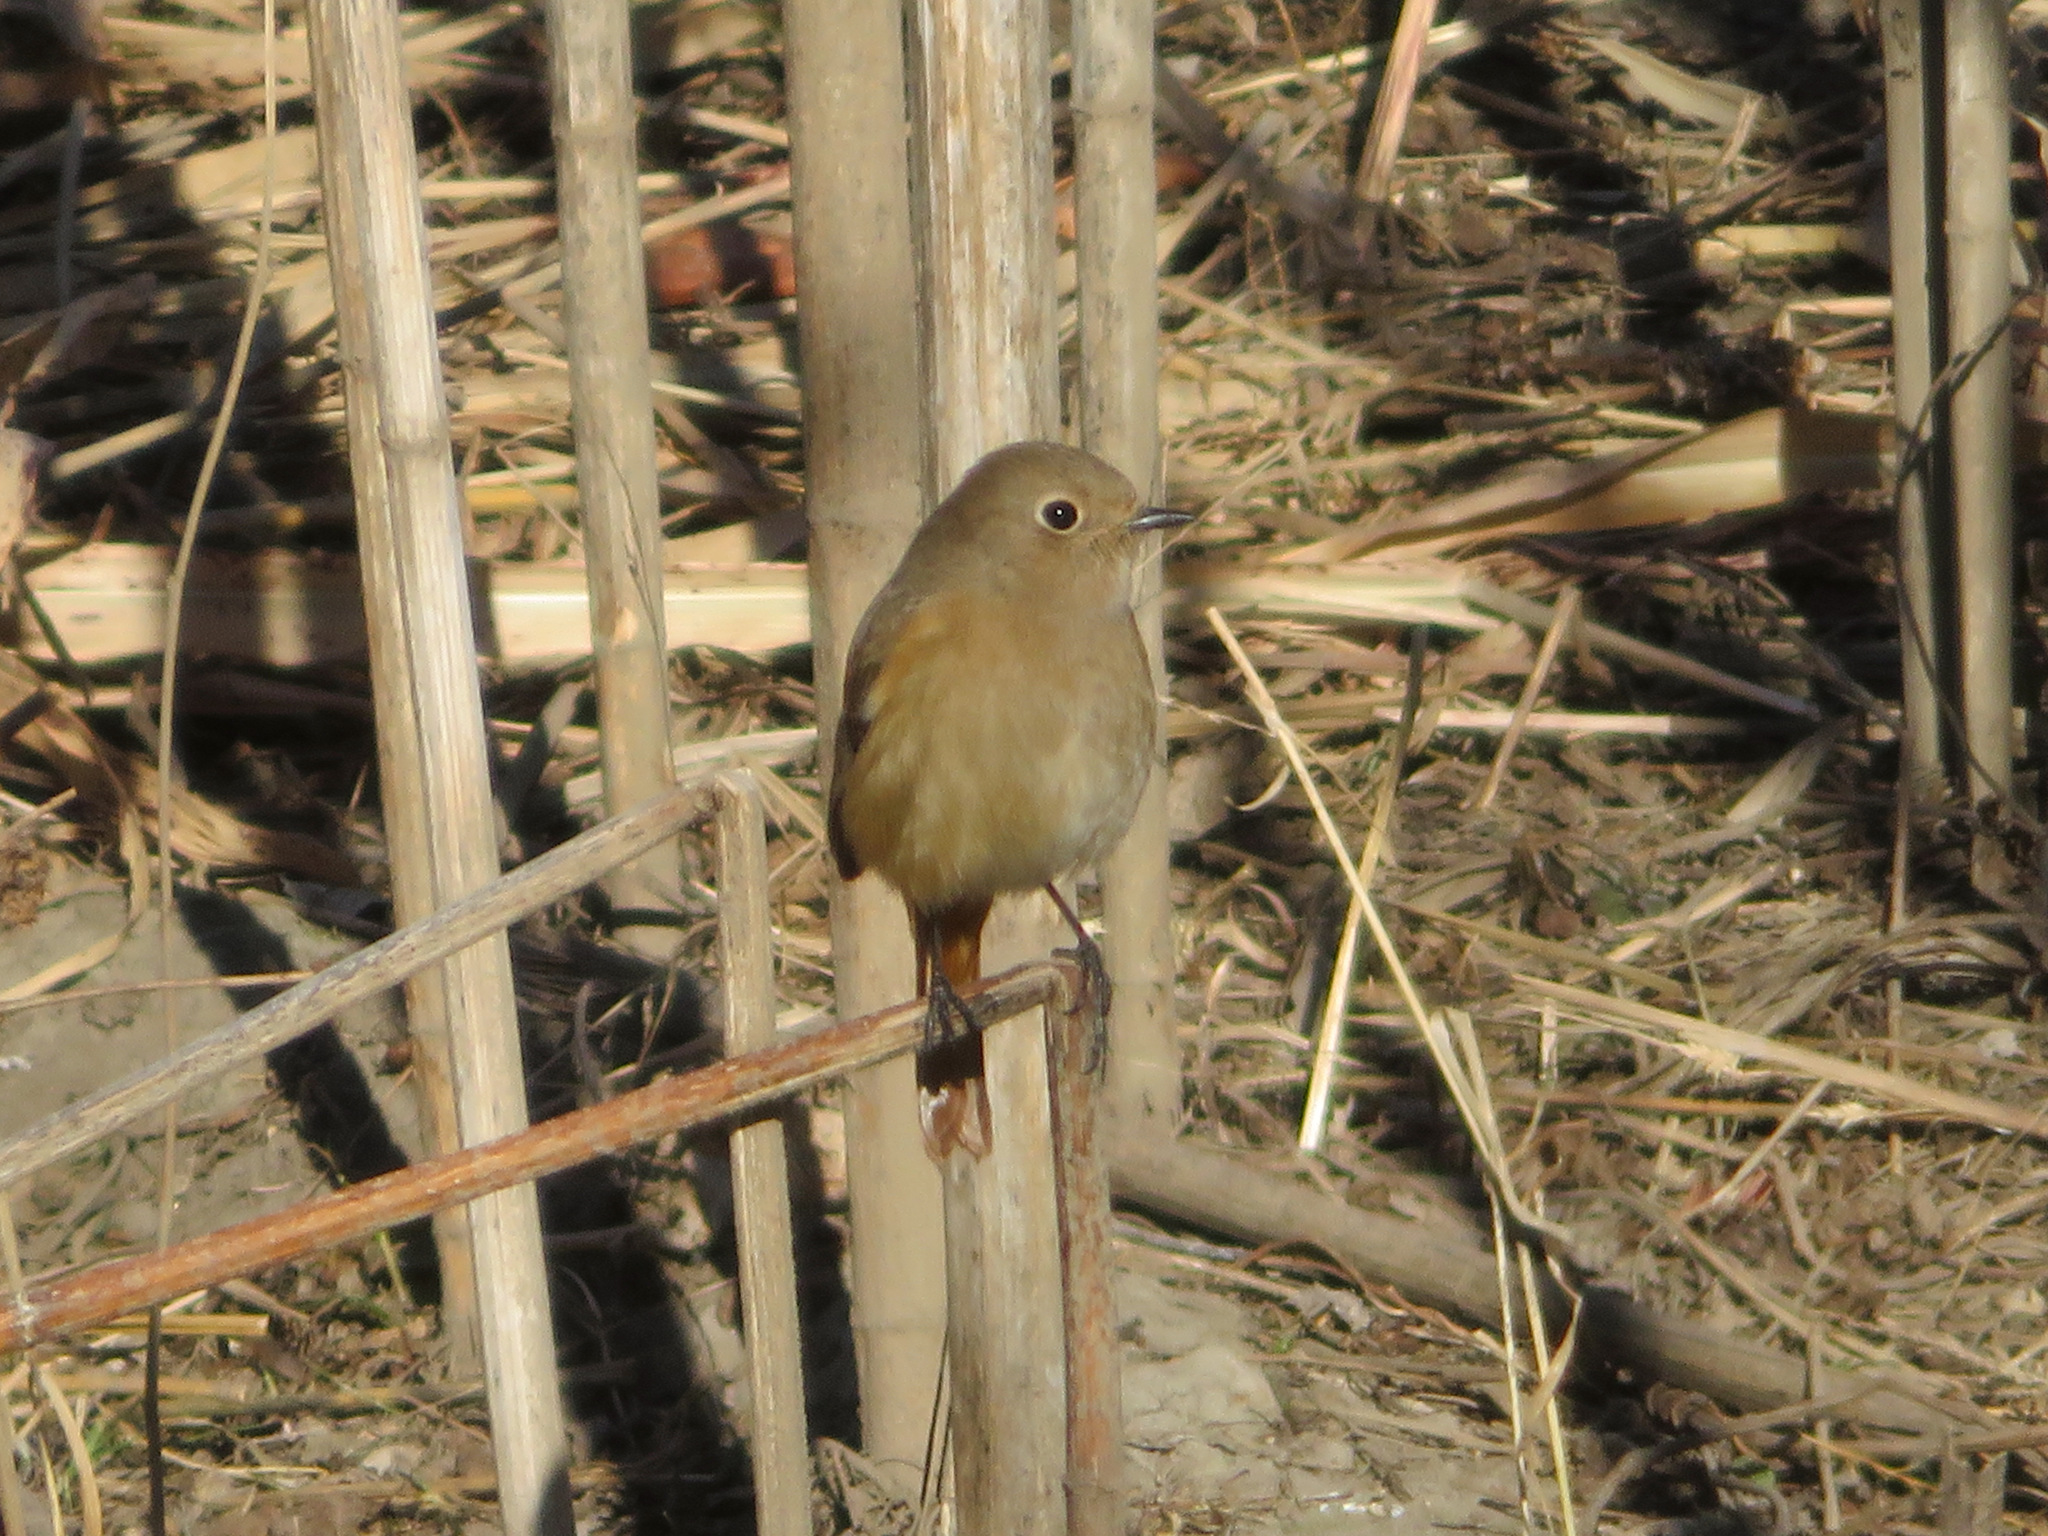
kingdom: Animalia
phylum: Chordata
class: Aves
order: Passeriformes
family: Muscicapidae
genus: Phoenicurus
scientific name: Phoenicurus auroreus
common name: Daurian redstart
